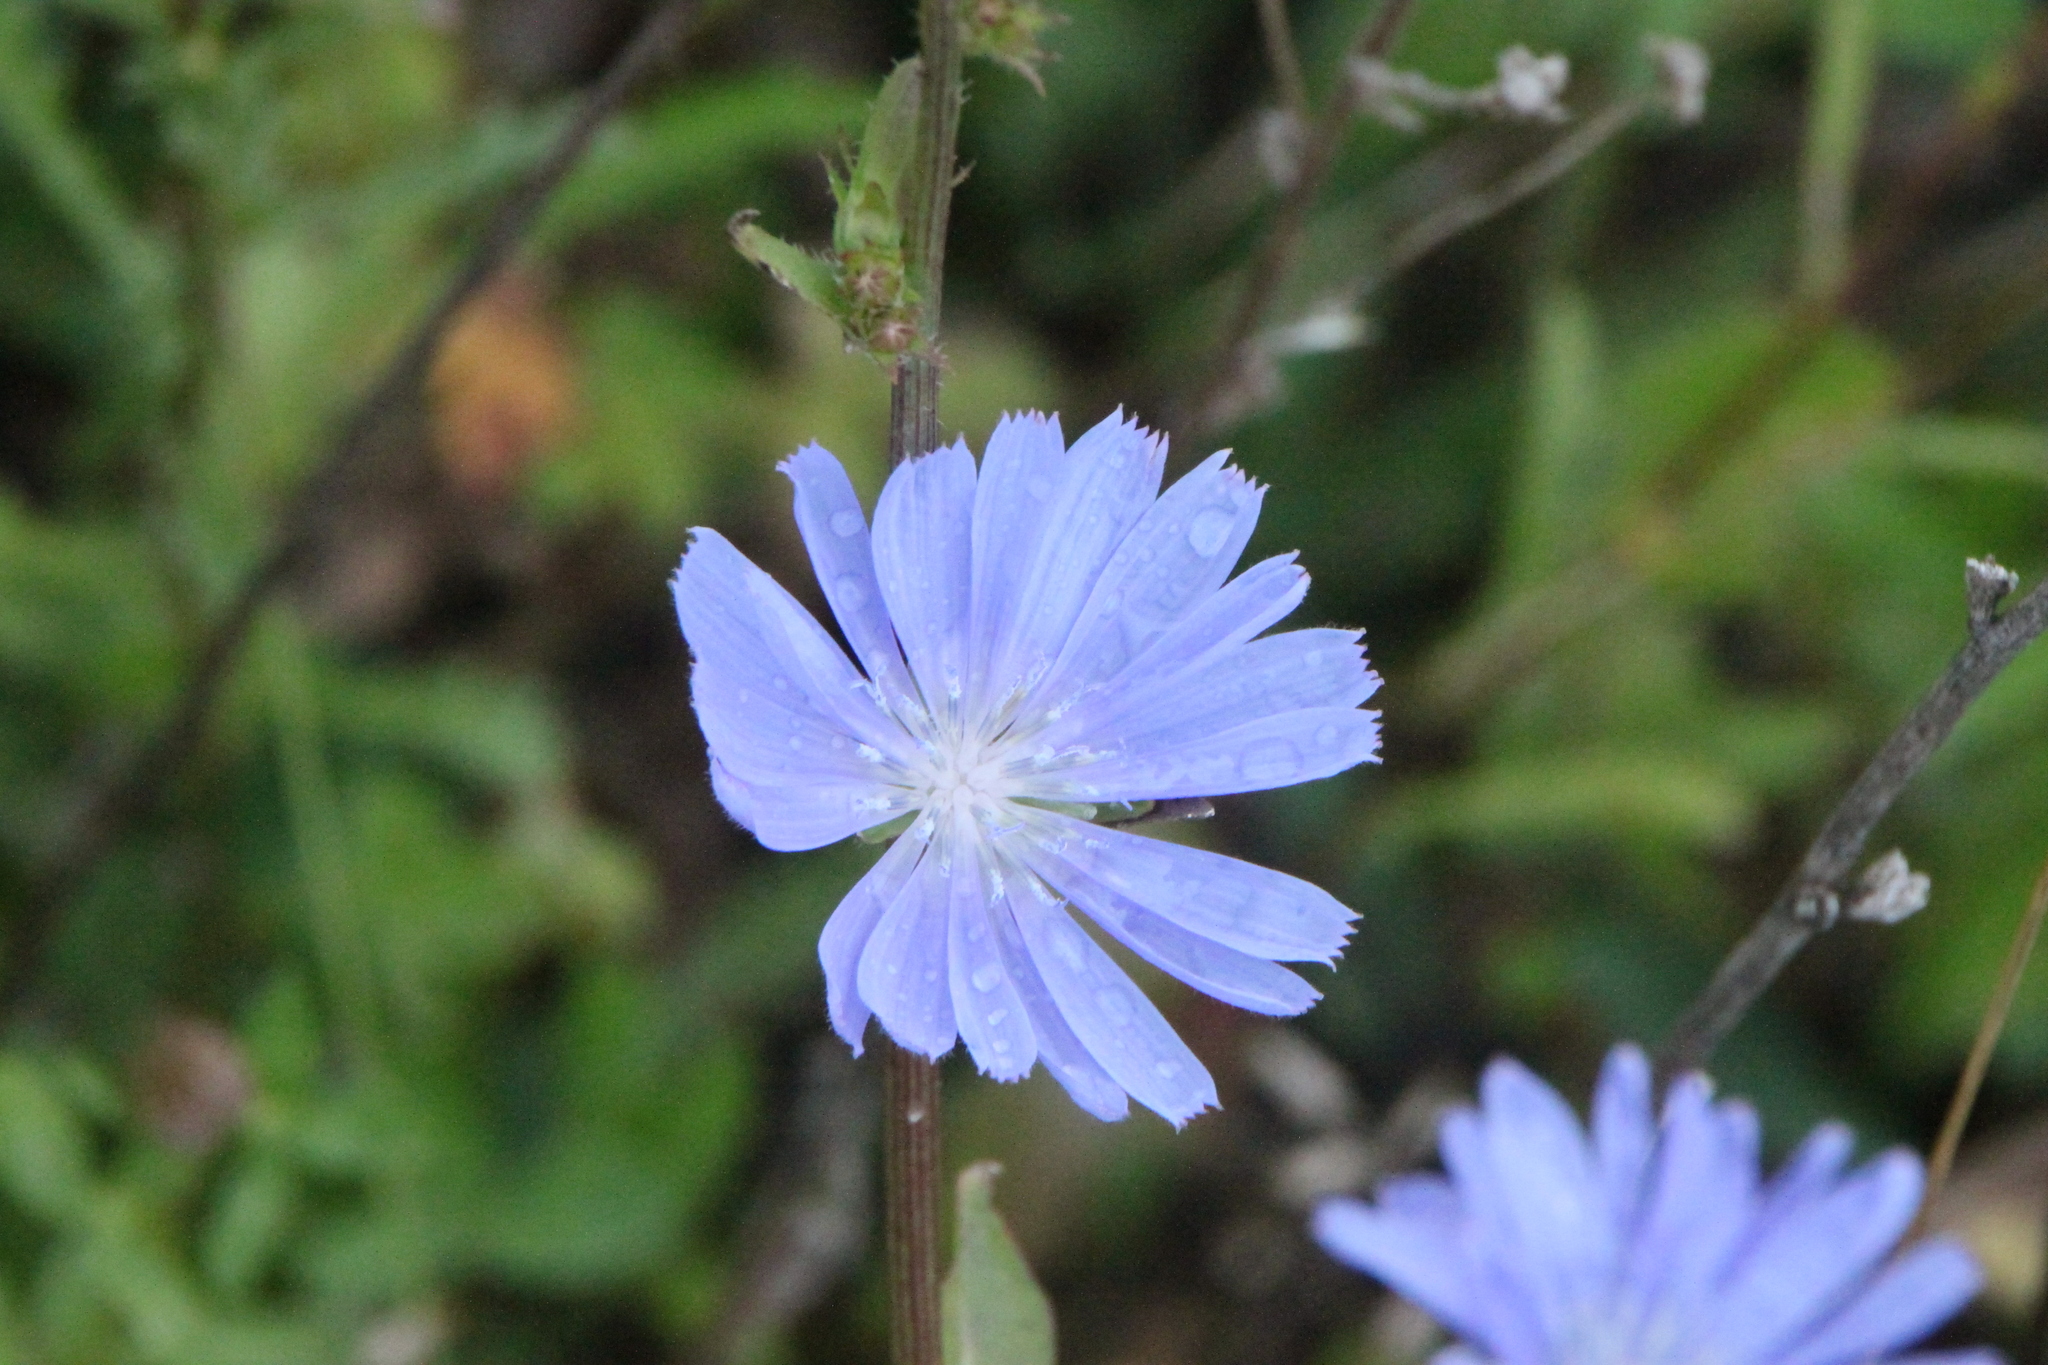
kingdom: Plantae
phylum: Tracheophyta
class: Magnoliopsida
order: Asterales
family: Asteraceae
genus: Cichorium
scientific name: Cichorium intybus
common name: Chicory
